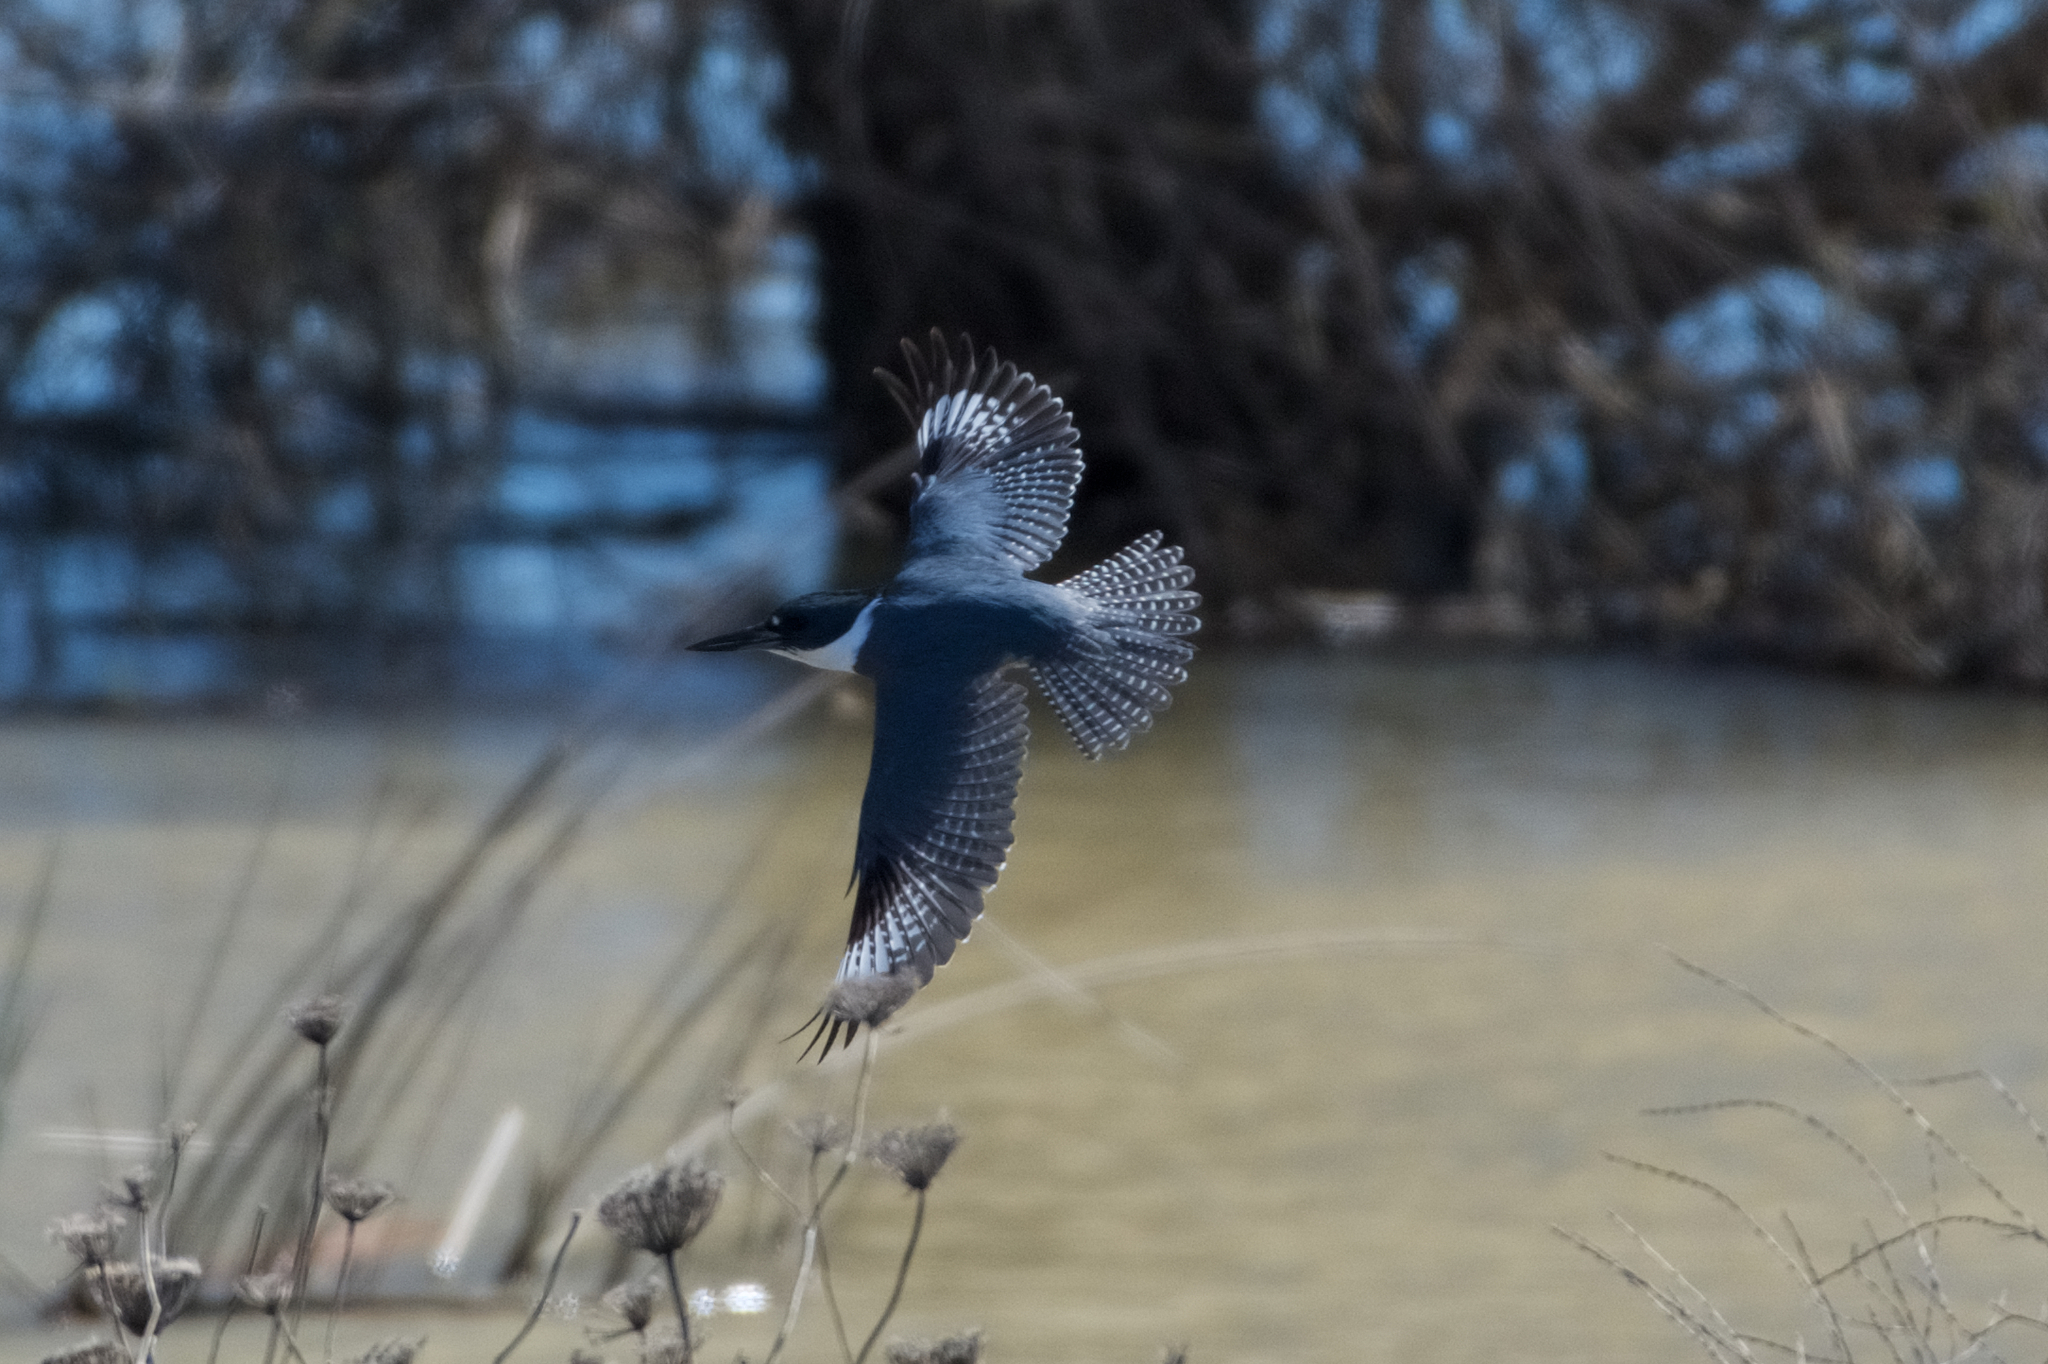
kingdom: Animalia
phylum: Chordata
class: Aves
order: Coraciiformes
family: Alcedinidae
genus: Megaceryle
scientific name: Megaceryle alcyon
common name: Belted kingfisher
